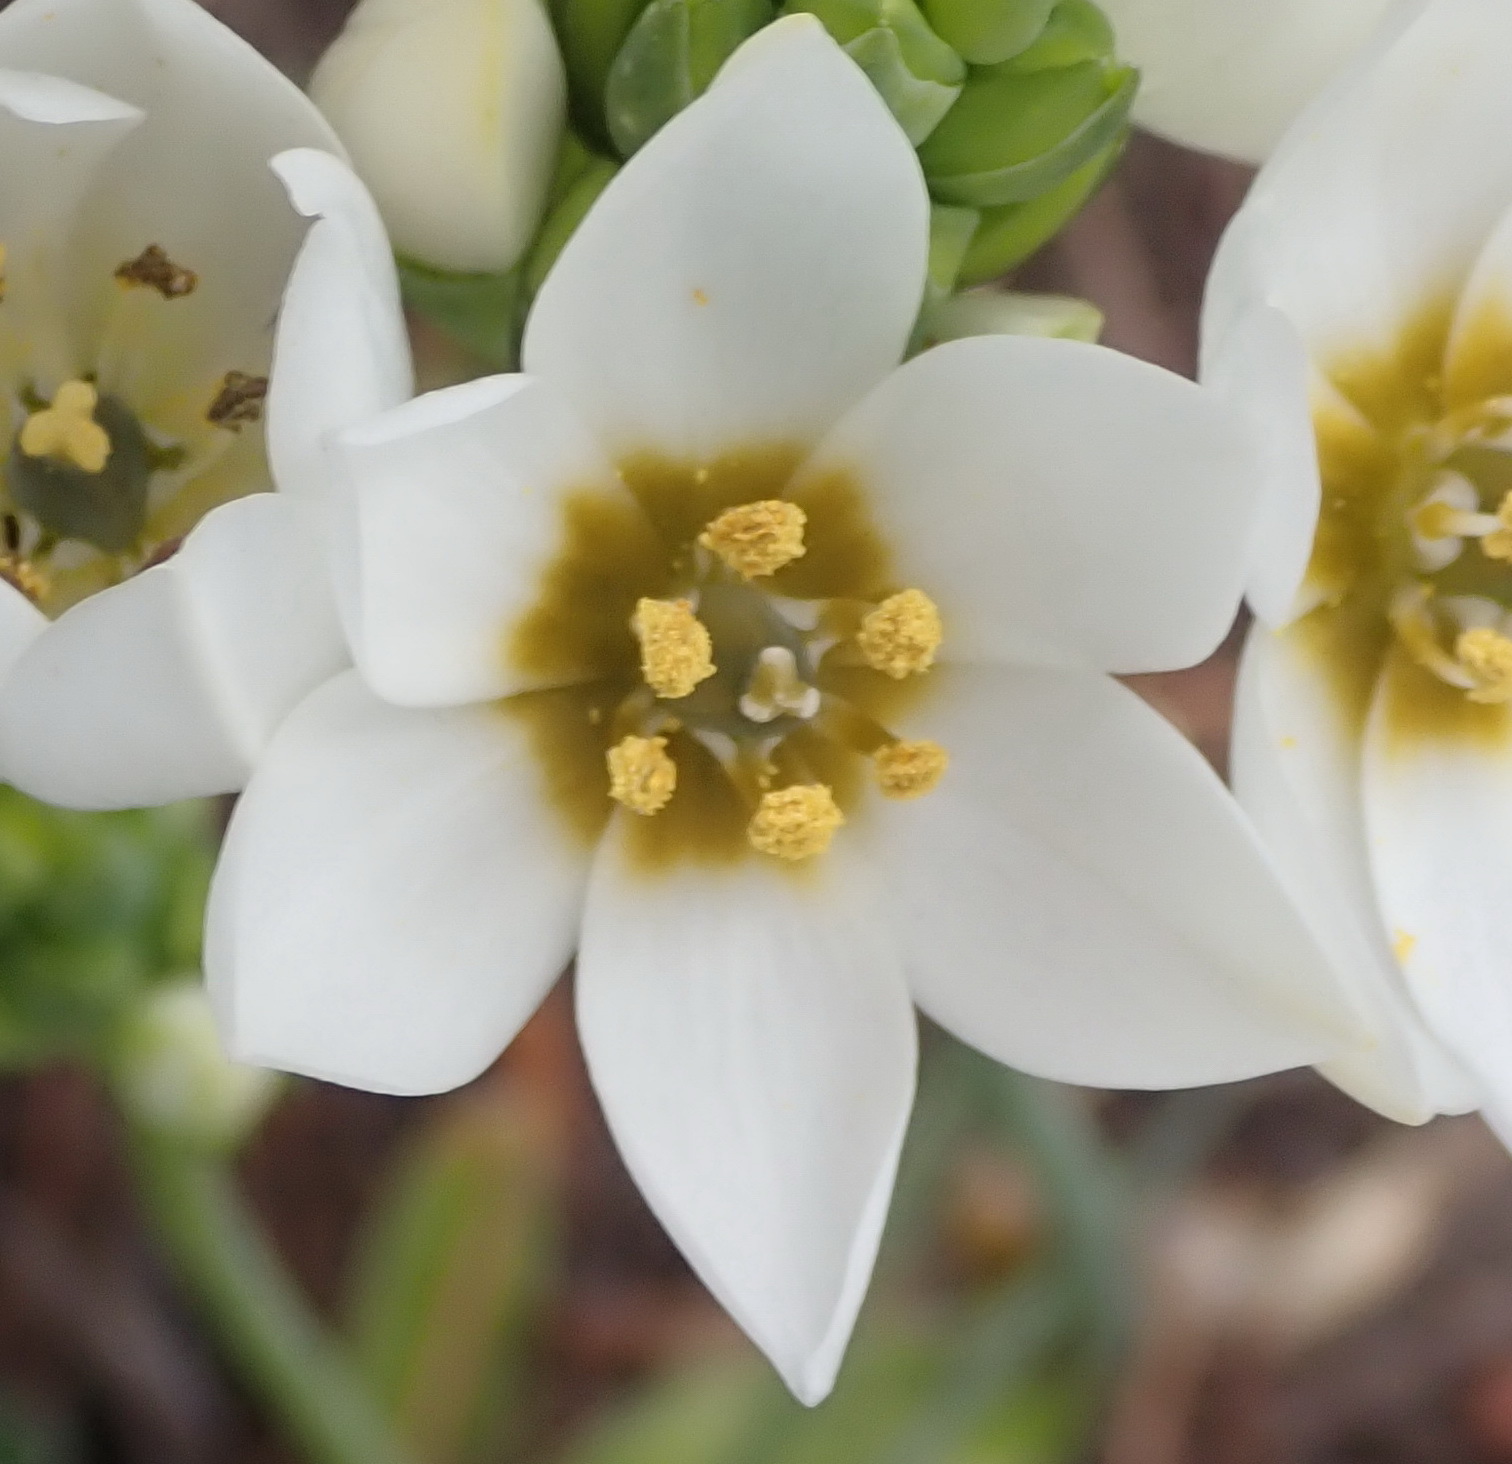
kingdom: Plantae
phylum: Tracheophyta
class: Liliopsida
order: Asparagales
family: Asparagaceae
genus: Ornithogalum
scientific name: Ornithogalum dubium
